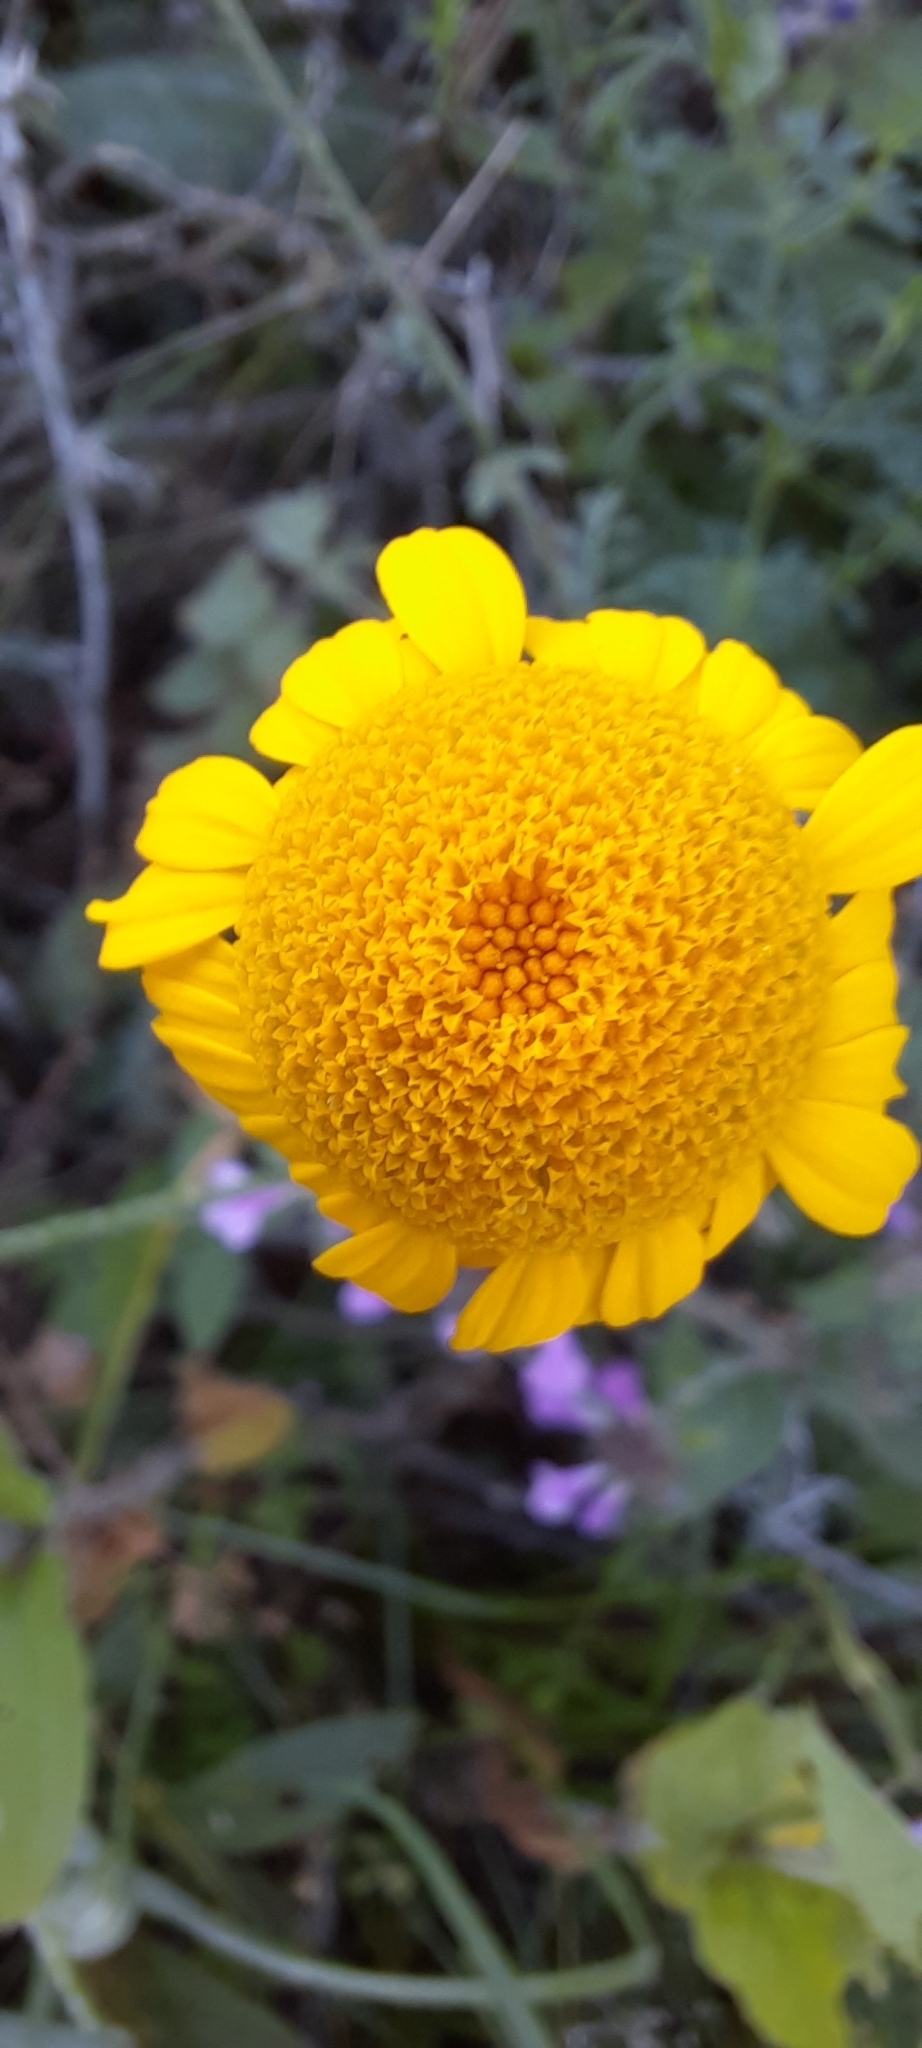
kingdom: Plantae
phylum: Tracheophyta
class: Magnoliopsida
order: Asterales
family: Asteraceae
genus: Cota
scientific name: Cota tinctoria
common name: Golden chamomile
